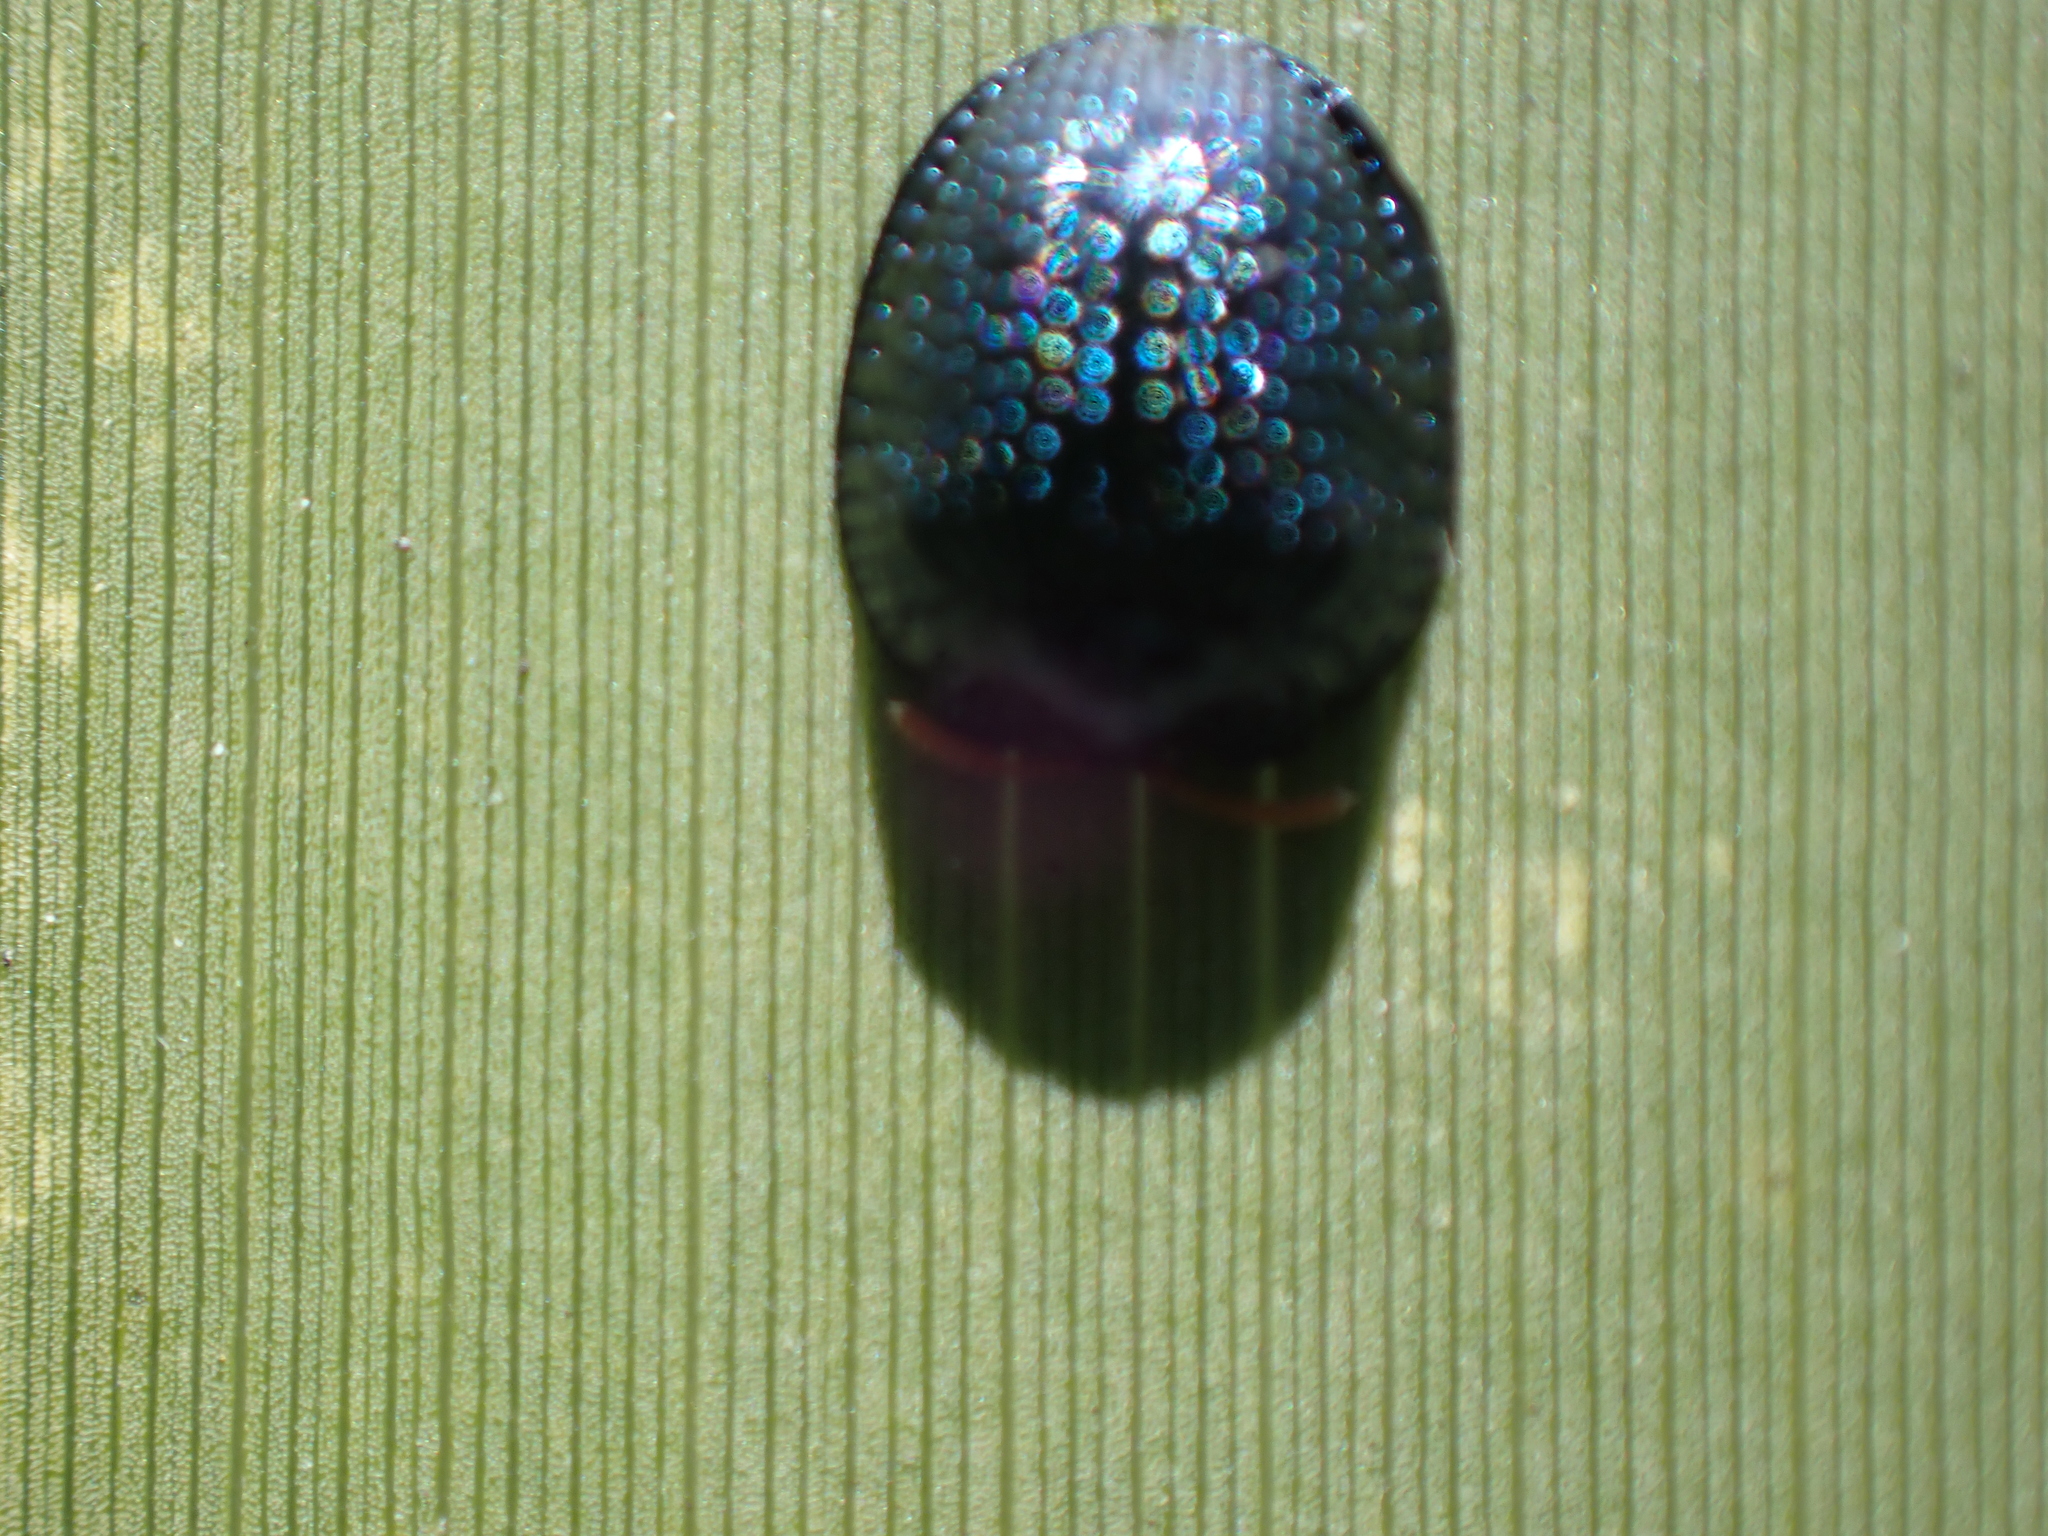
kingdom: Animalia
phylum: Arthropoda
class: Insecta
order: Coleoptera
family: Chrysomelidae
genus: Hemisphaerota
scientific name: Hemisphaerota cyanea
